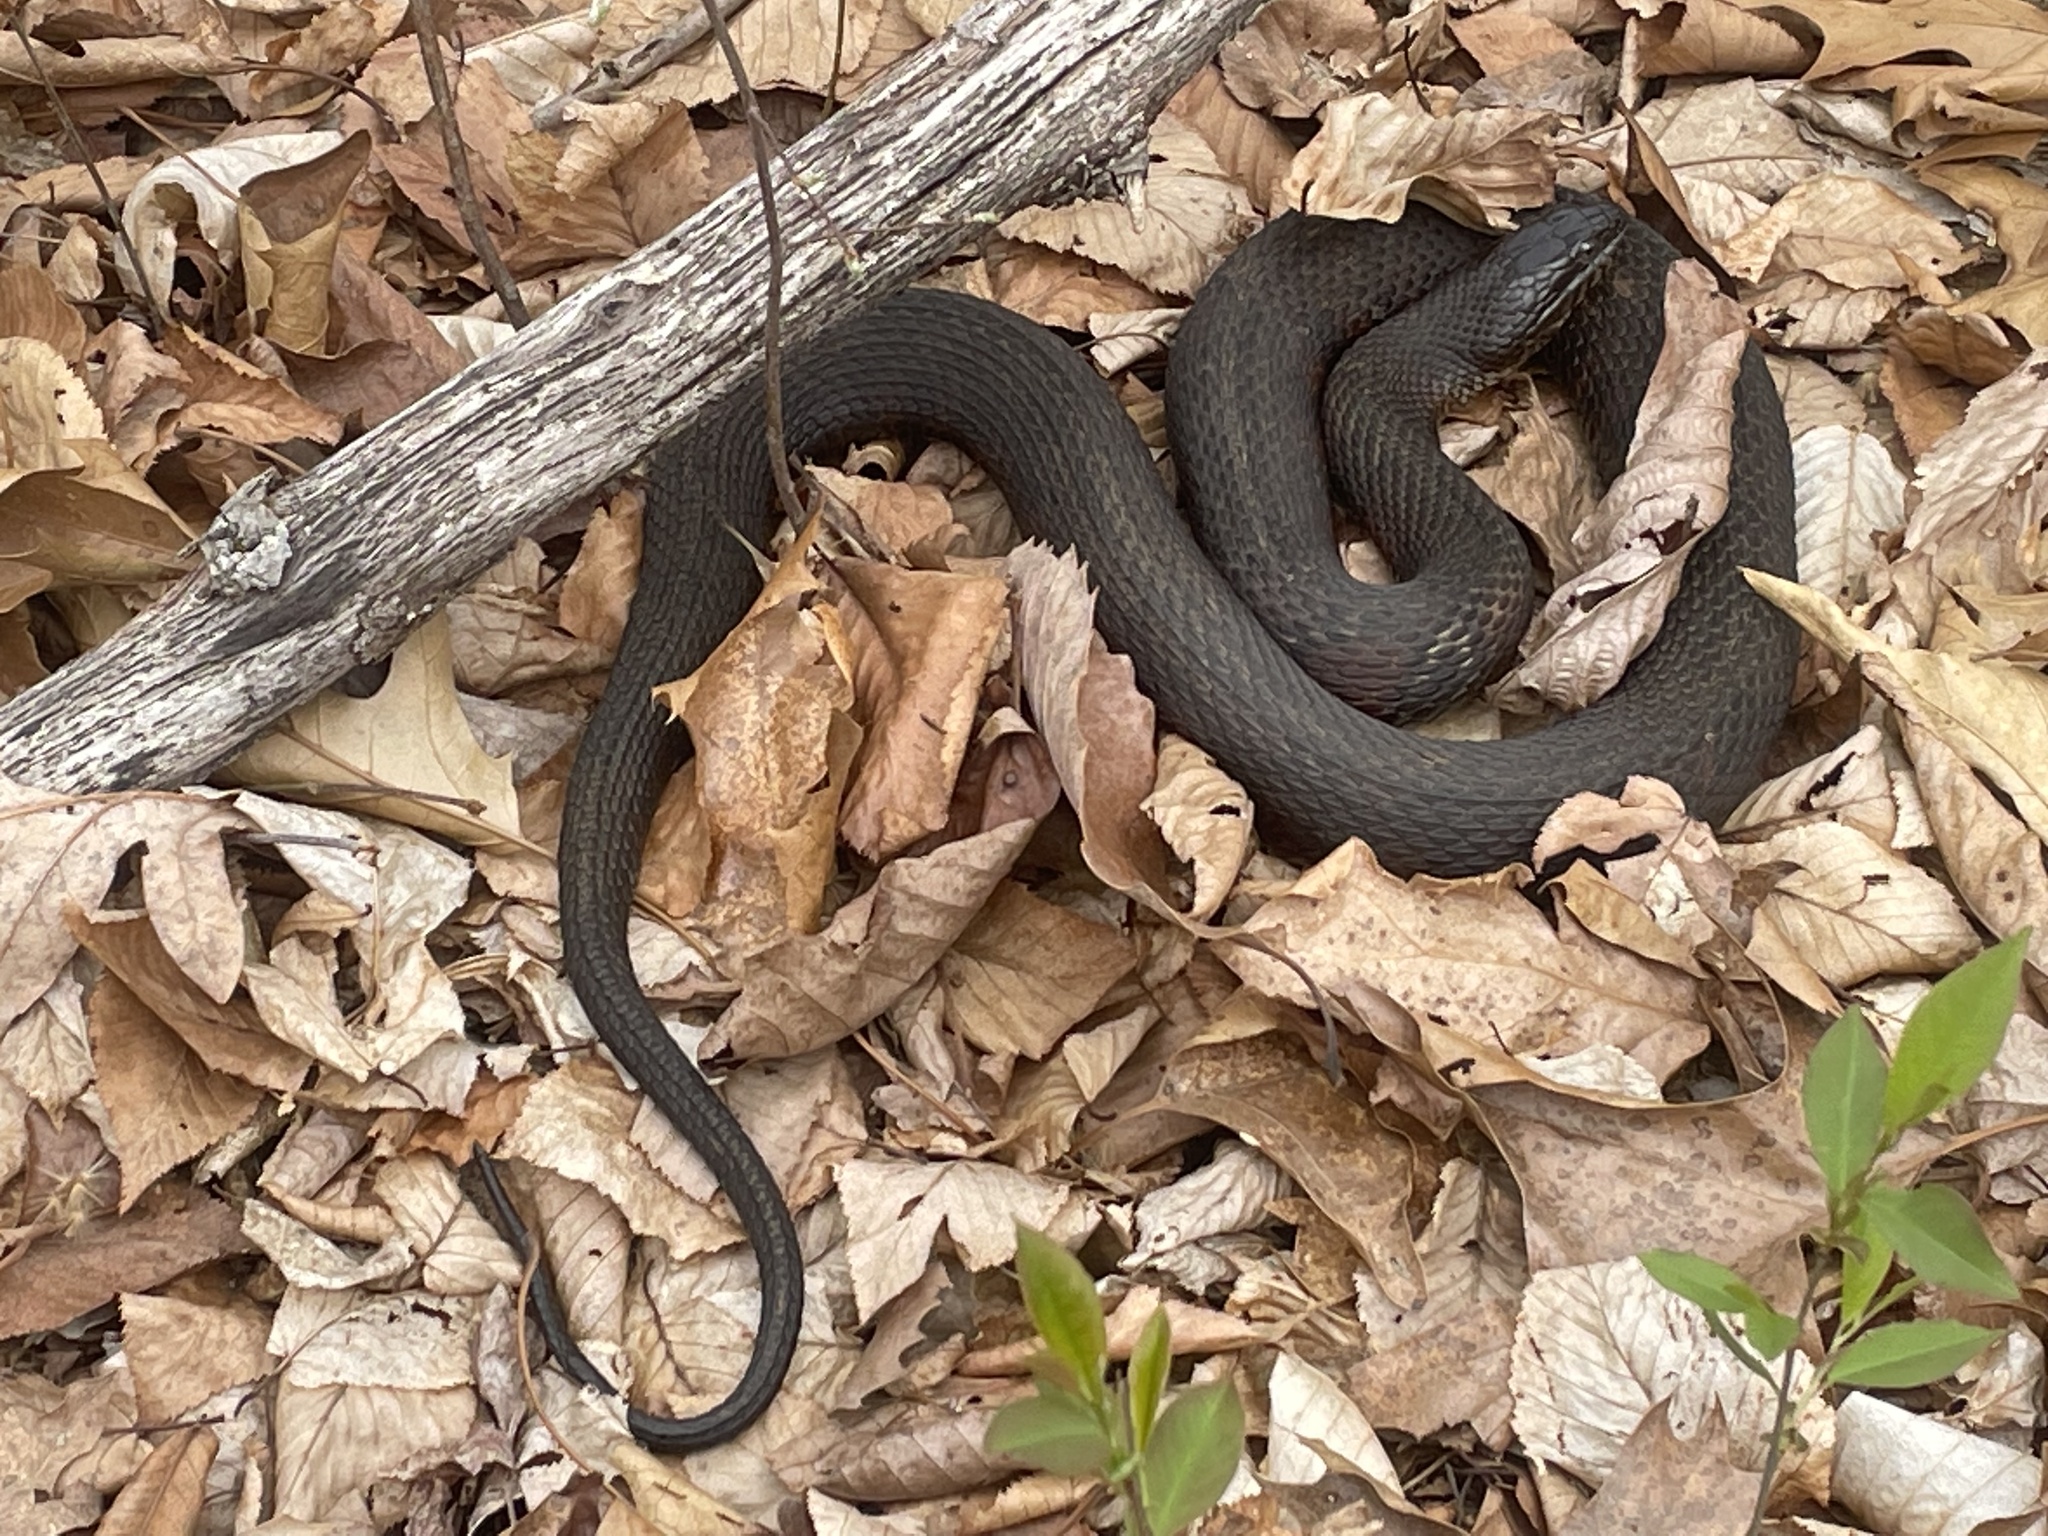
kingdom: Animalia
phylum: Chordata
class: Squamata
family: Colubridae
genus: Nerodia
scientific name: Nerodia sipedon
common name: Northern water snake
